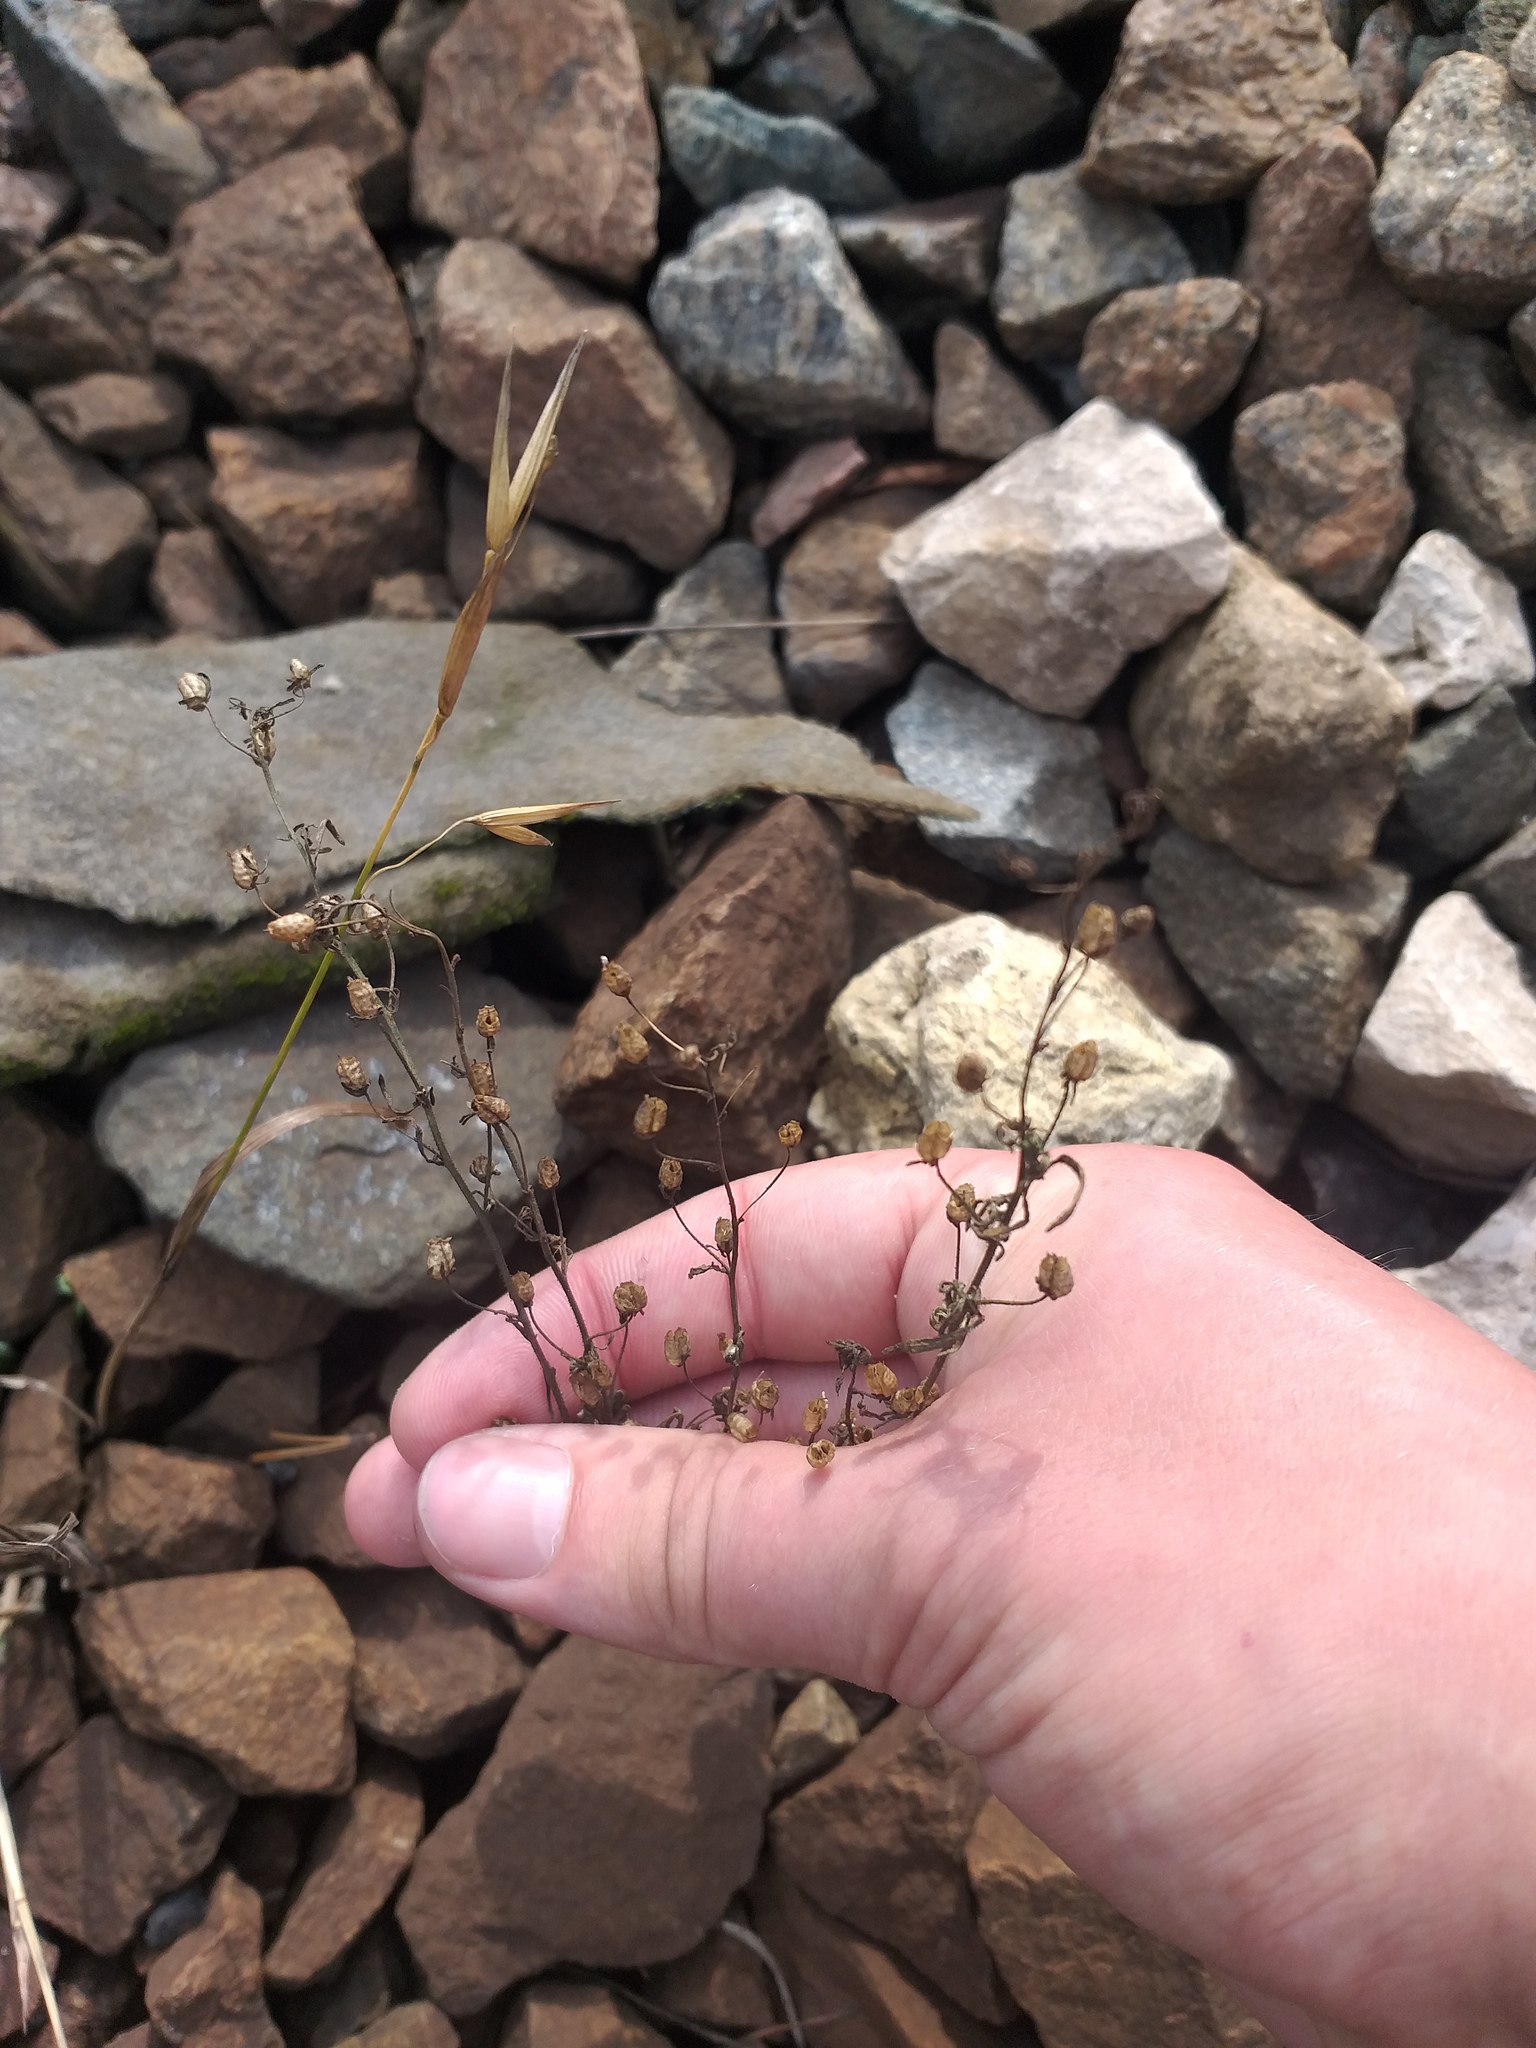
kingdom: Plantae
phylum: Tracheophyta
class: Magnoliopsida
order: Lamiales
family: Plantaginaceae
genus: Chaenorhinum
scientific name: Chaenorhinum minus
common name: Dwarf snapdragon
